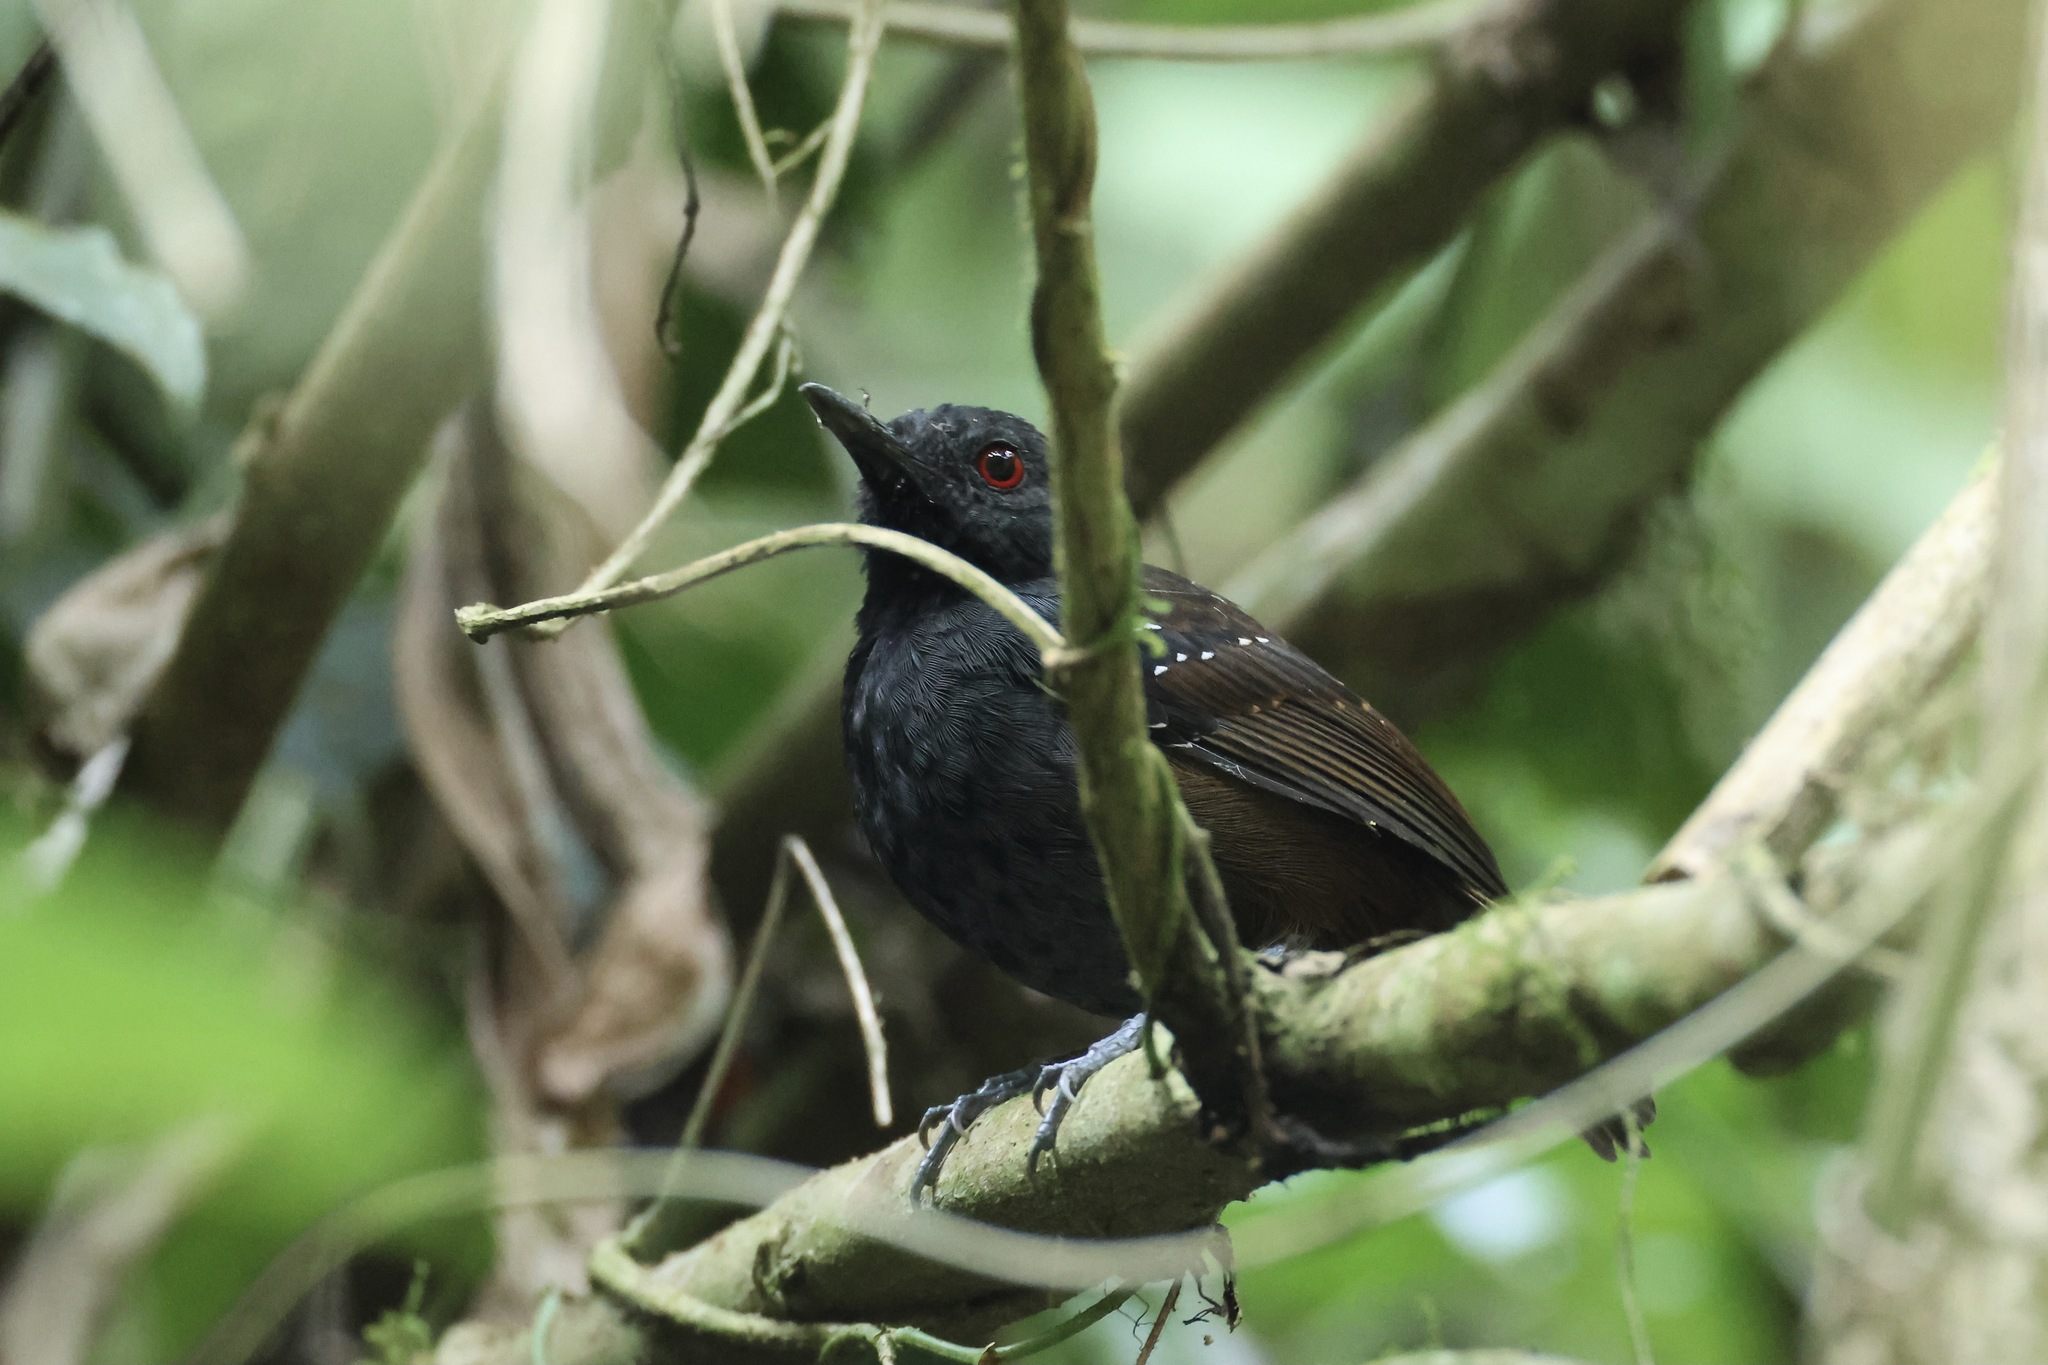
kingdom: Animalia
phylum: Chordata
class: Aves
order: Passeriformes
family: Thamnophilidae
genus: Sipia
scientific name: Sipia laemosticta
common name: Dull-mantled antbird
